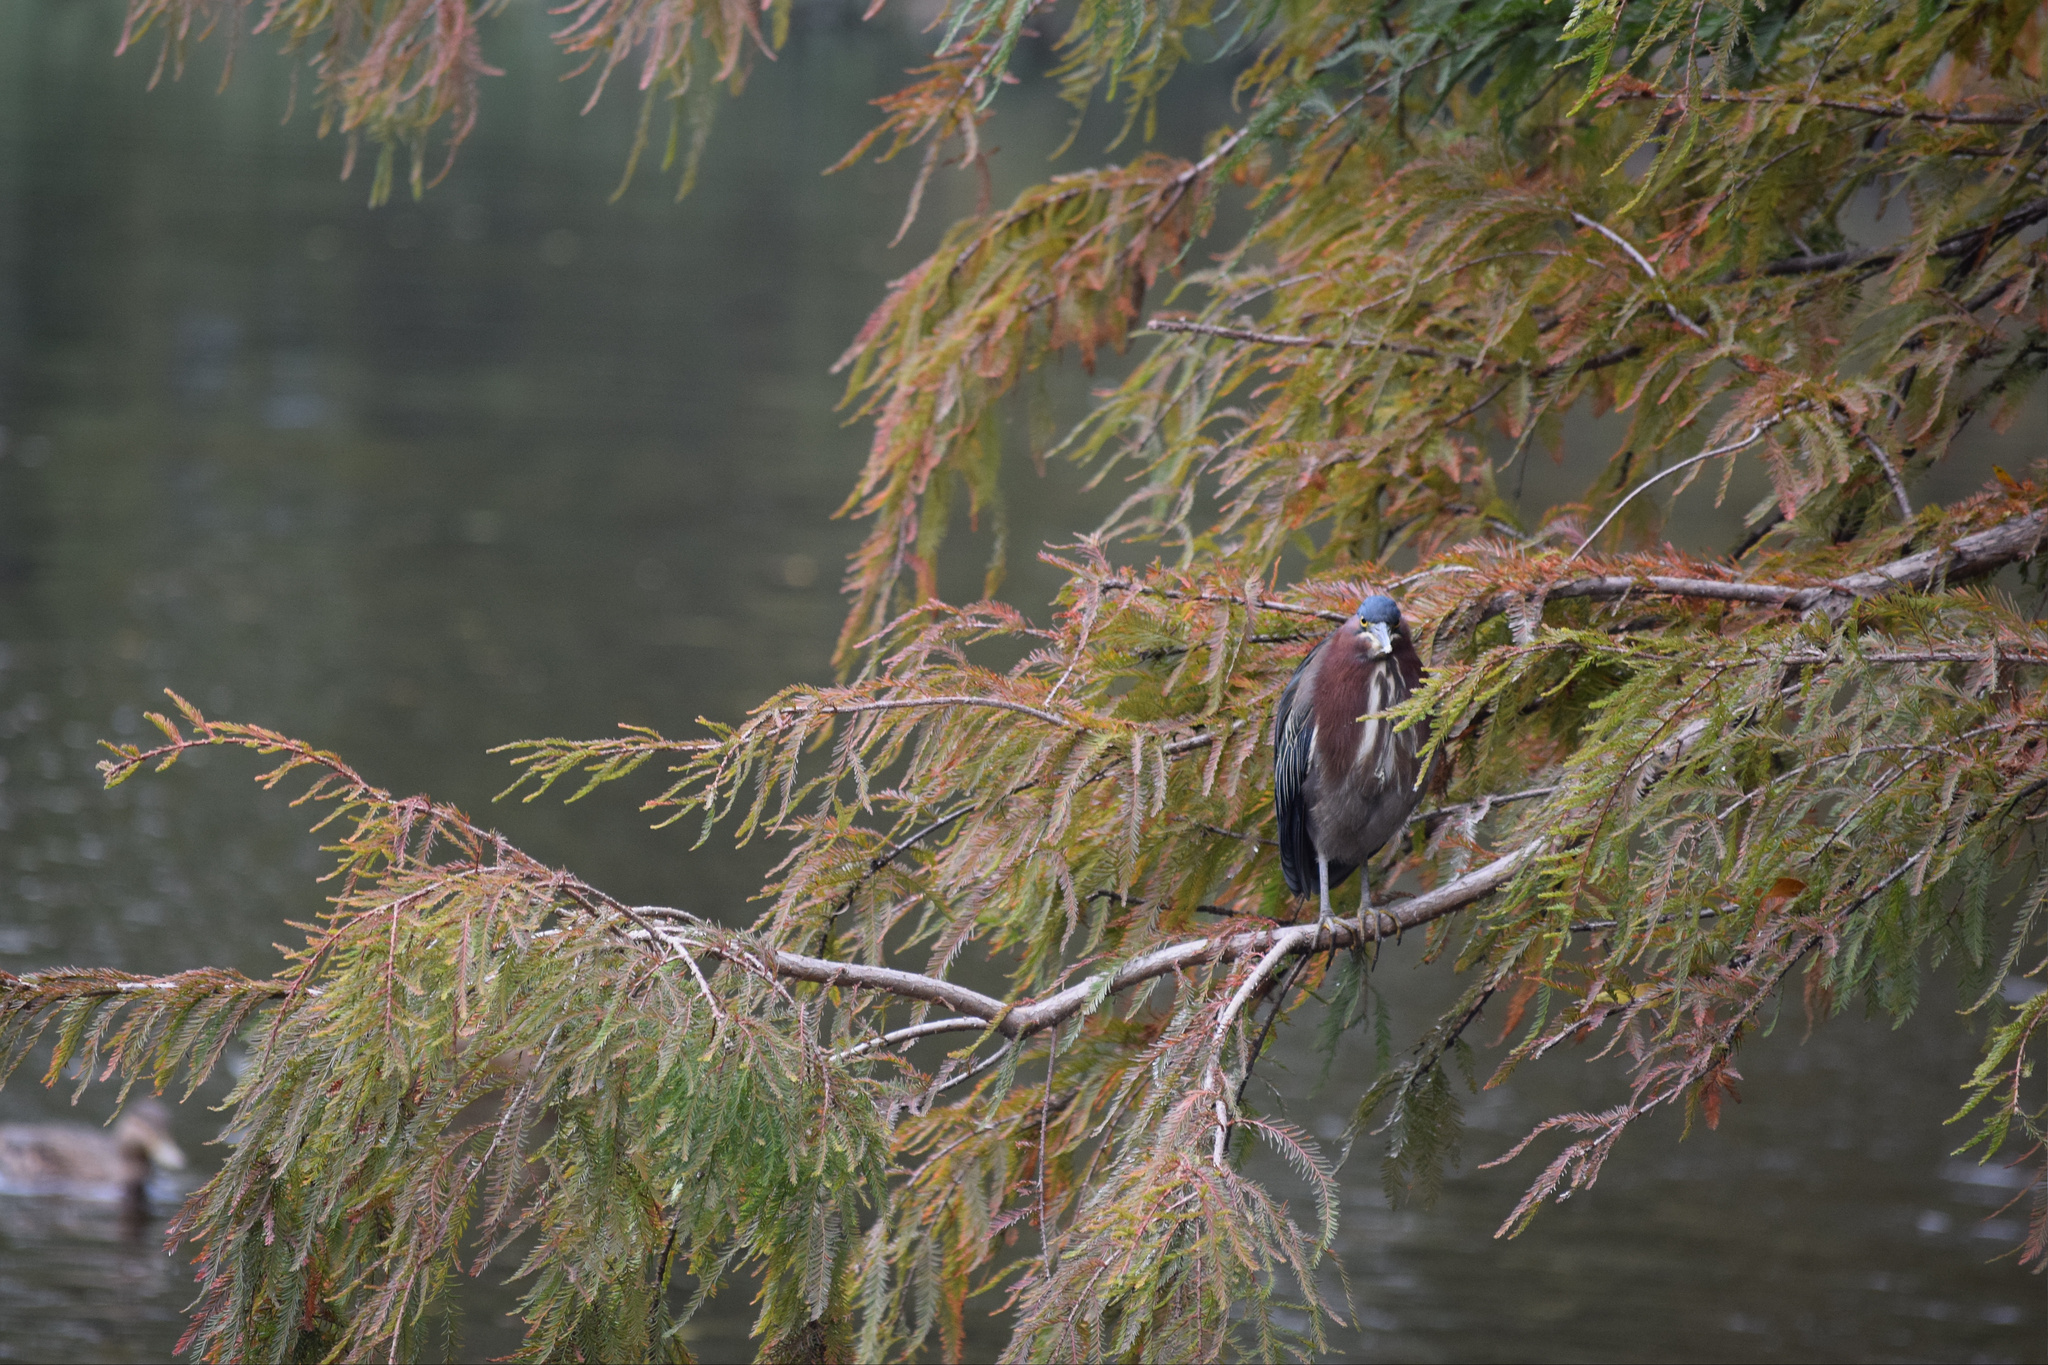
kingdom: Animalia
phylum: Chordata
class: Aves
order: Pelecaniformes
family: Ardeidae
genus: Butorides
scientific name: Butorides virescens
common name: Green heron
